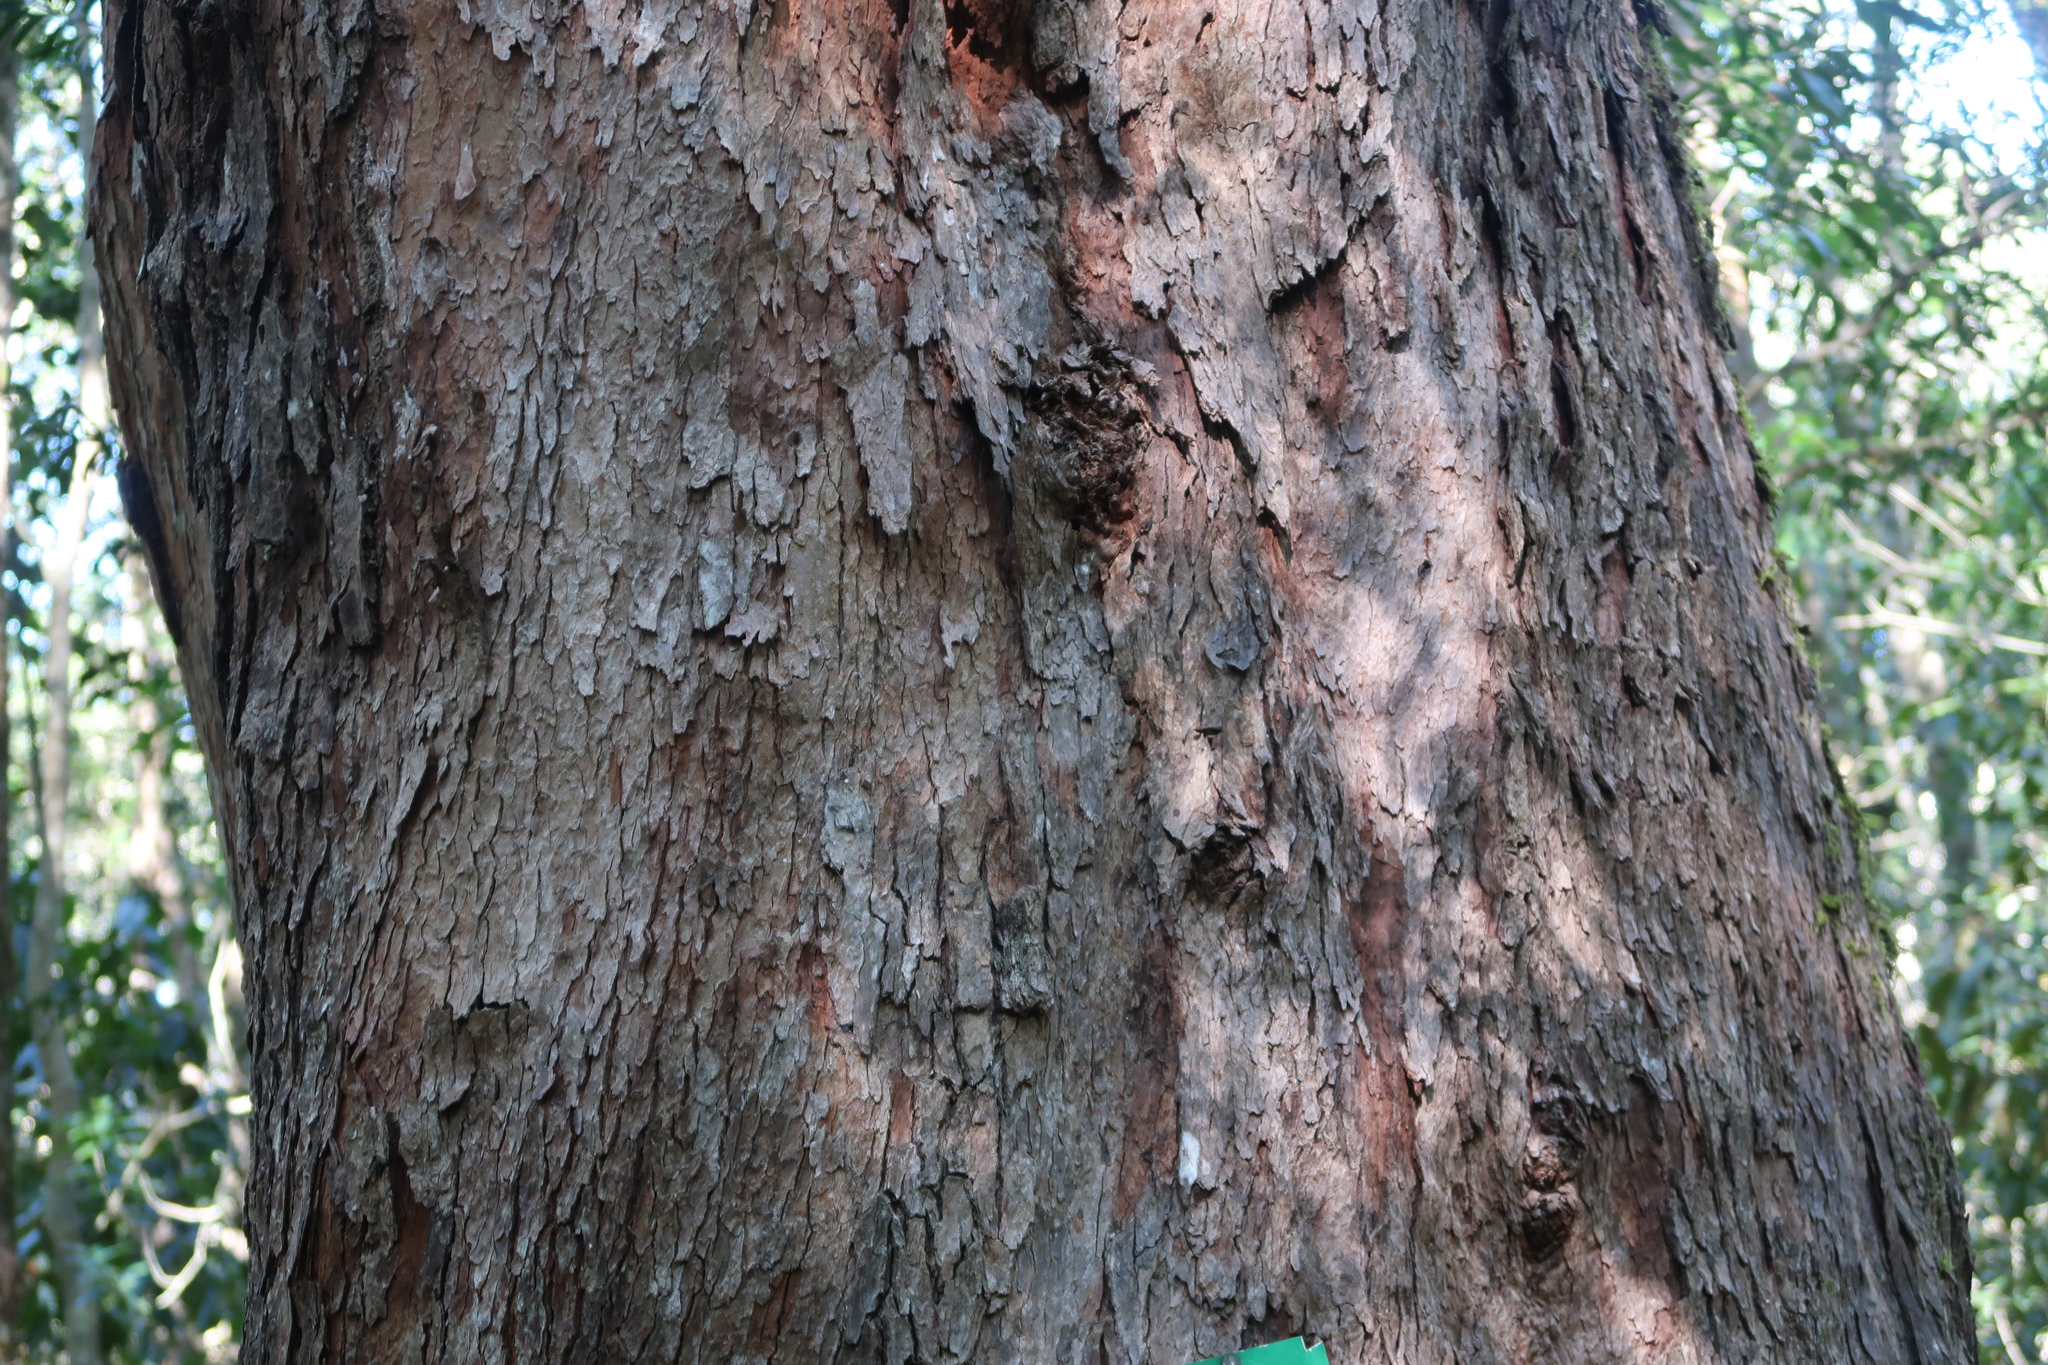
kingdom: Plantae
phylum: Tracheophyta
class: Magnoliopsida
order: Myrtales
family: Penaeaceae
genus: Olinia
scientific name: Olinia ventosa
